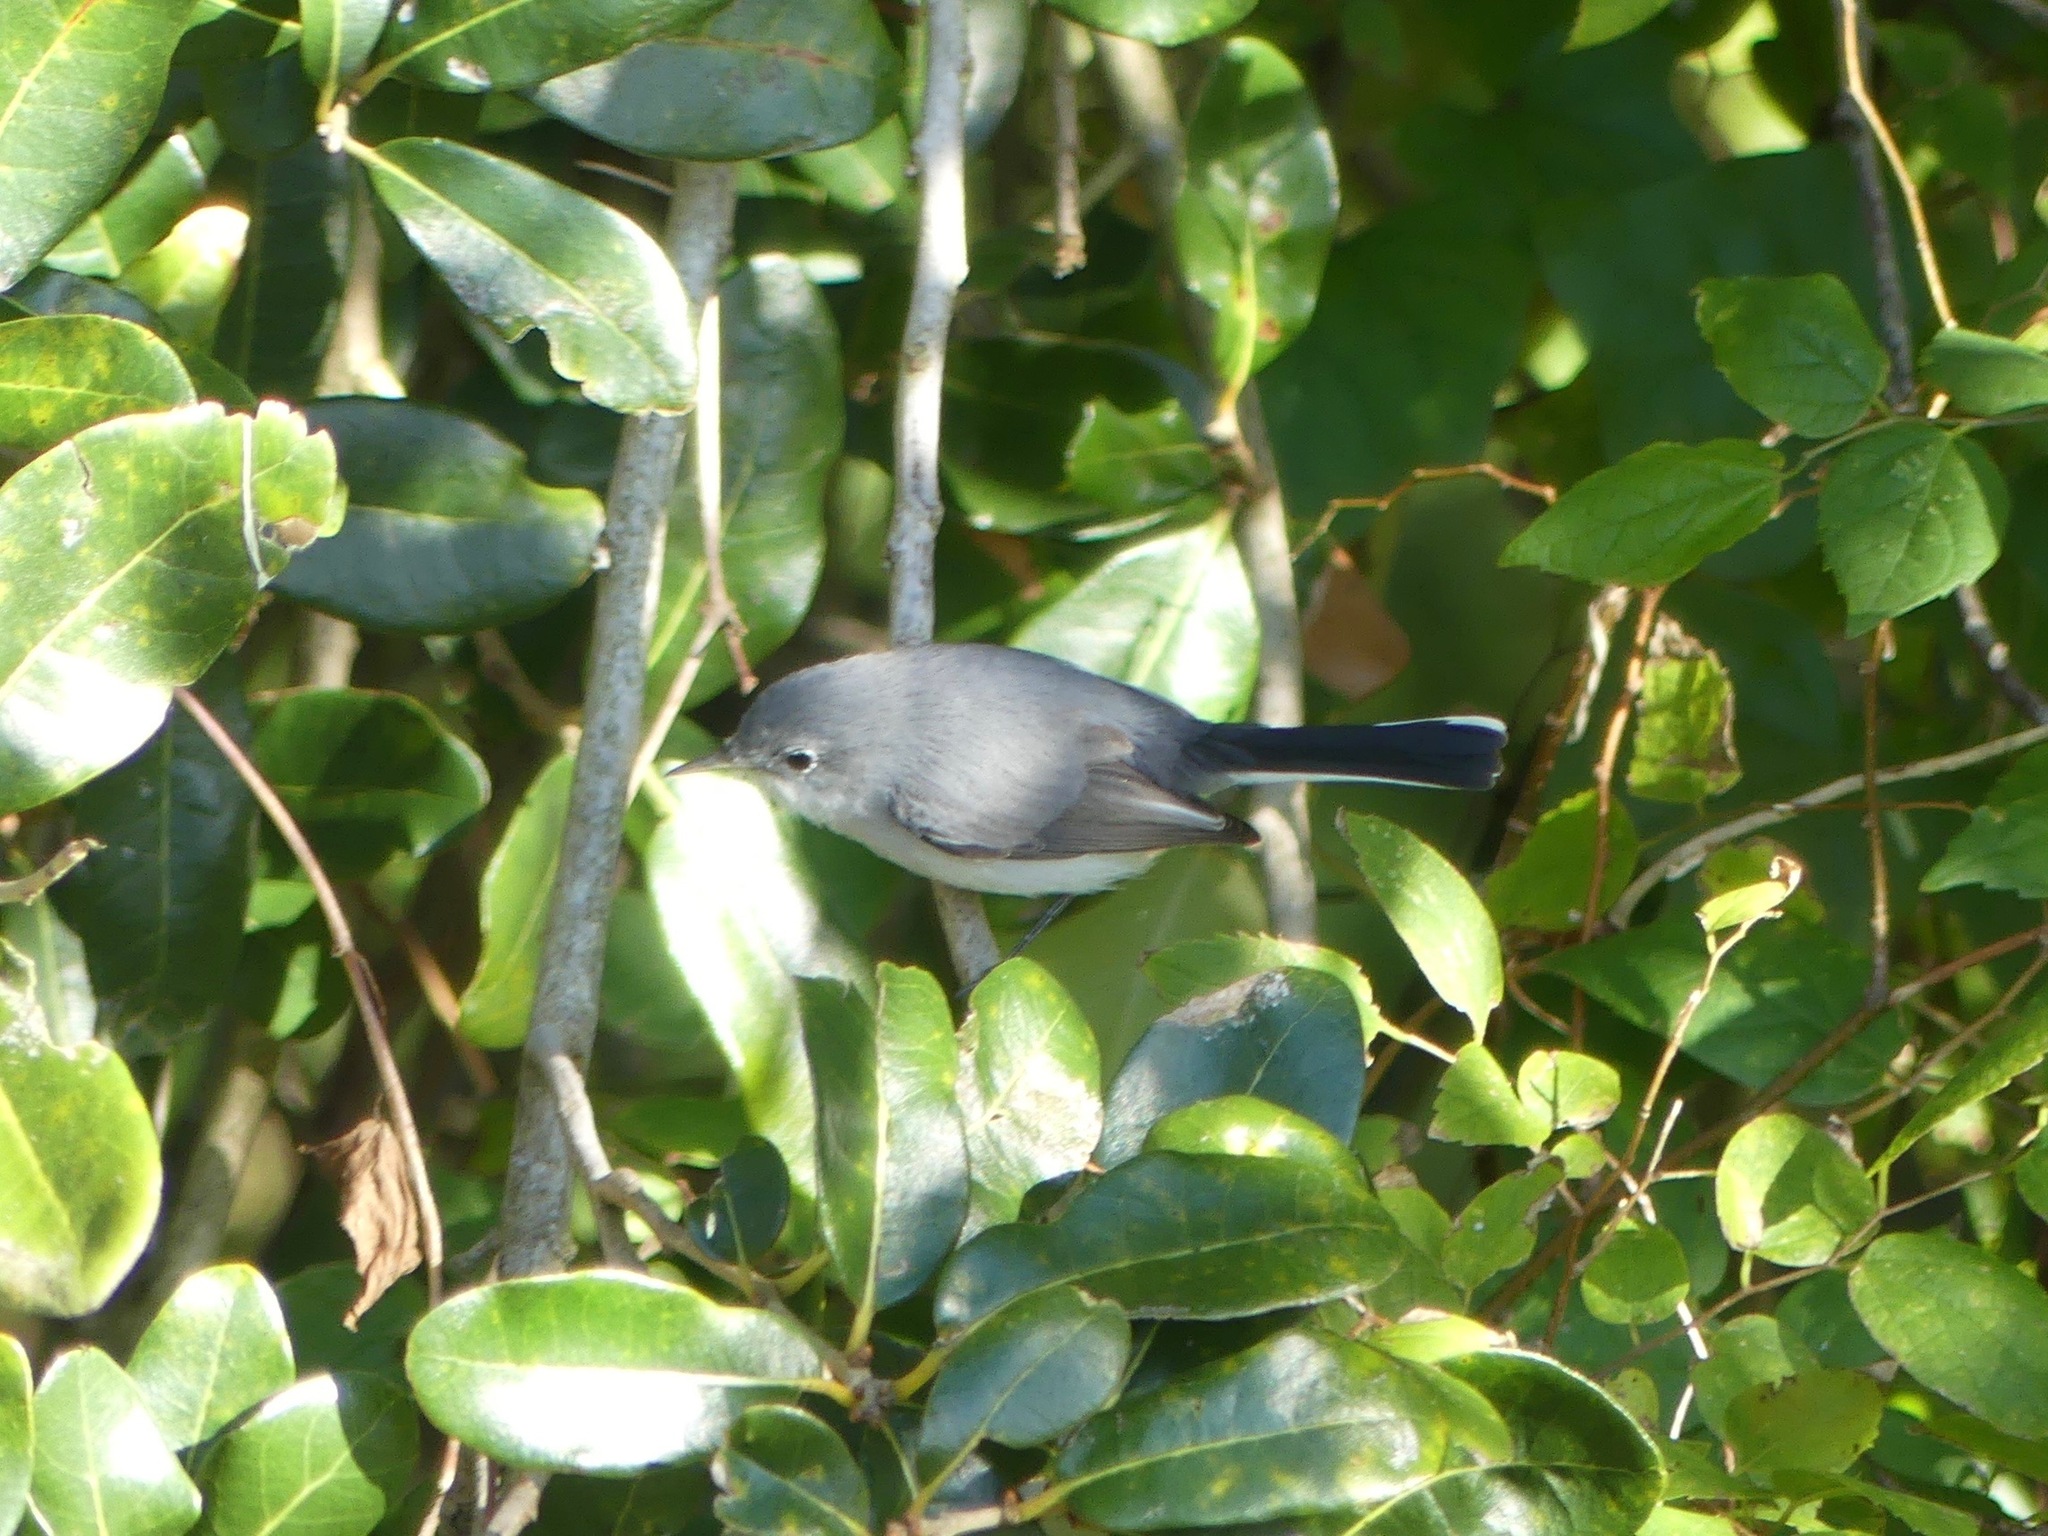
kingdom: Animalia
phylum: Chordata
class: Aves
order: Passeriformes
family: Polioptilidae
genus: Polioptila
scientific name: Polioptila caerulea
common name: Blue-gray gnatcatcher
